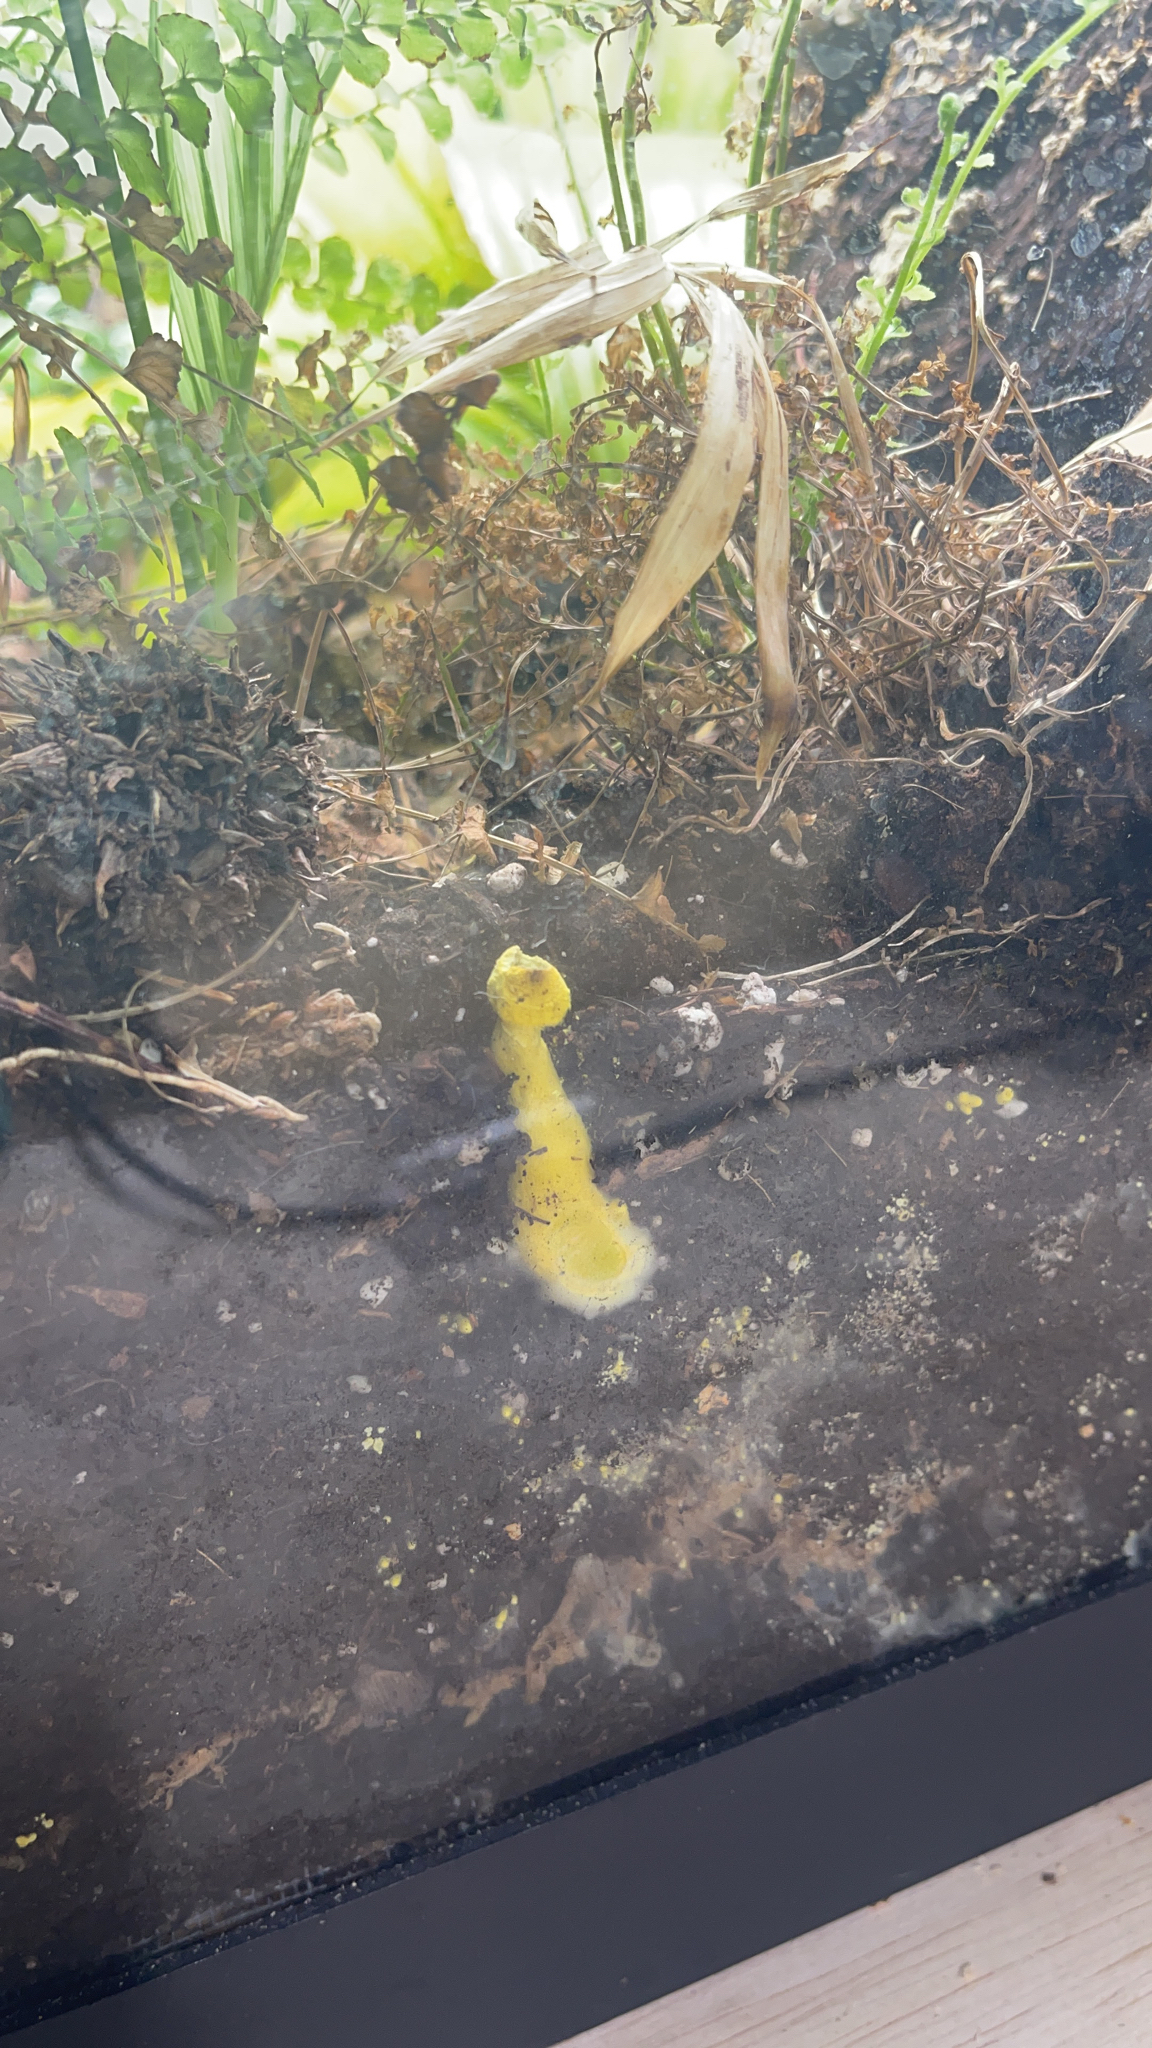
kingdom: Fungi
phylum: Basidiomycota
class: Agaricomycetes
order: Agaricales
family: Agaricaceae
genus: Leucocoprinus
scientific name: Leucocoprinus birnbaumii
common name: Plantpot dapperling
